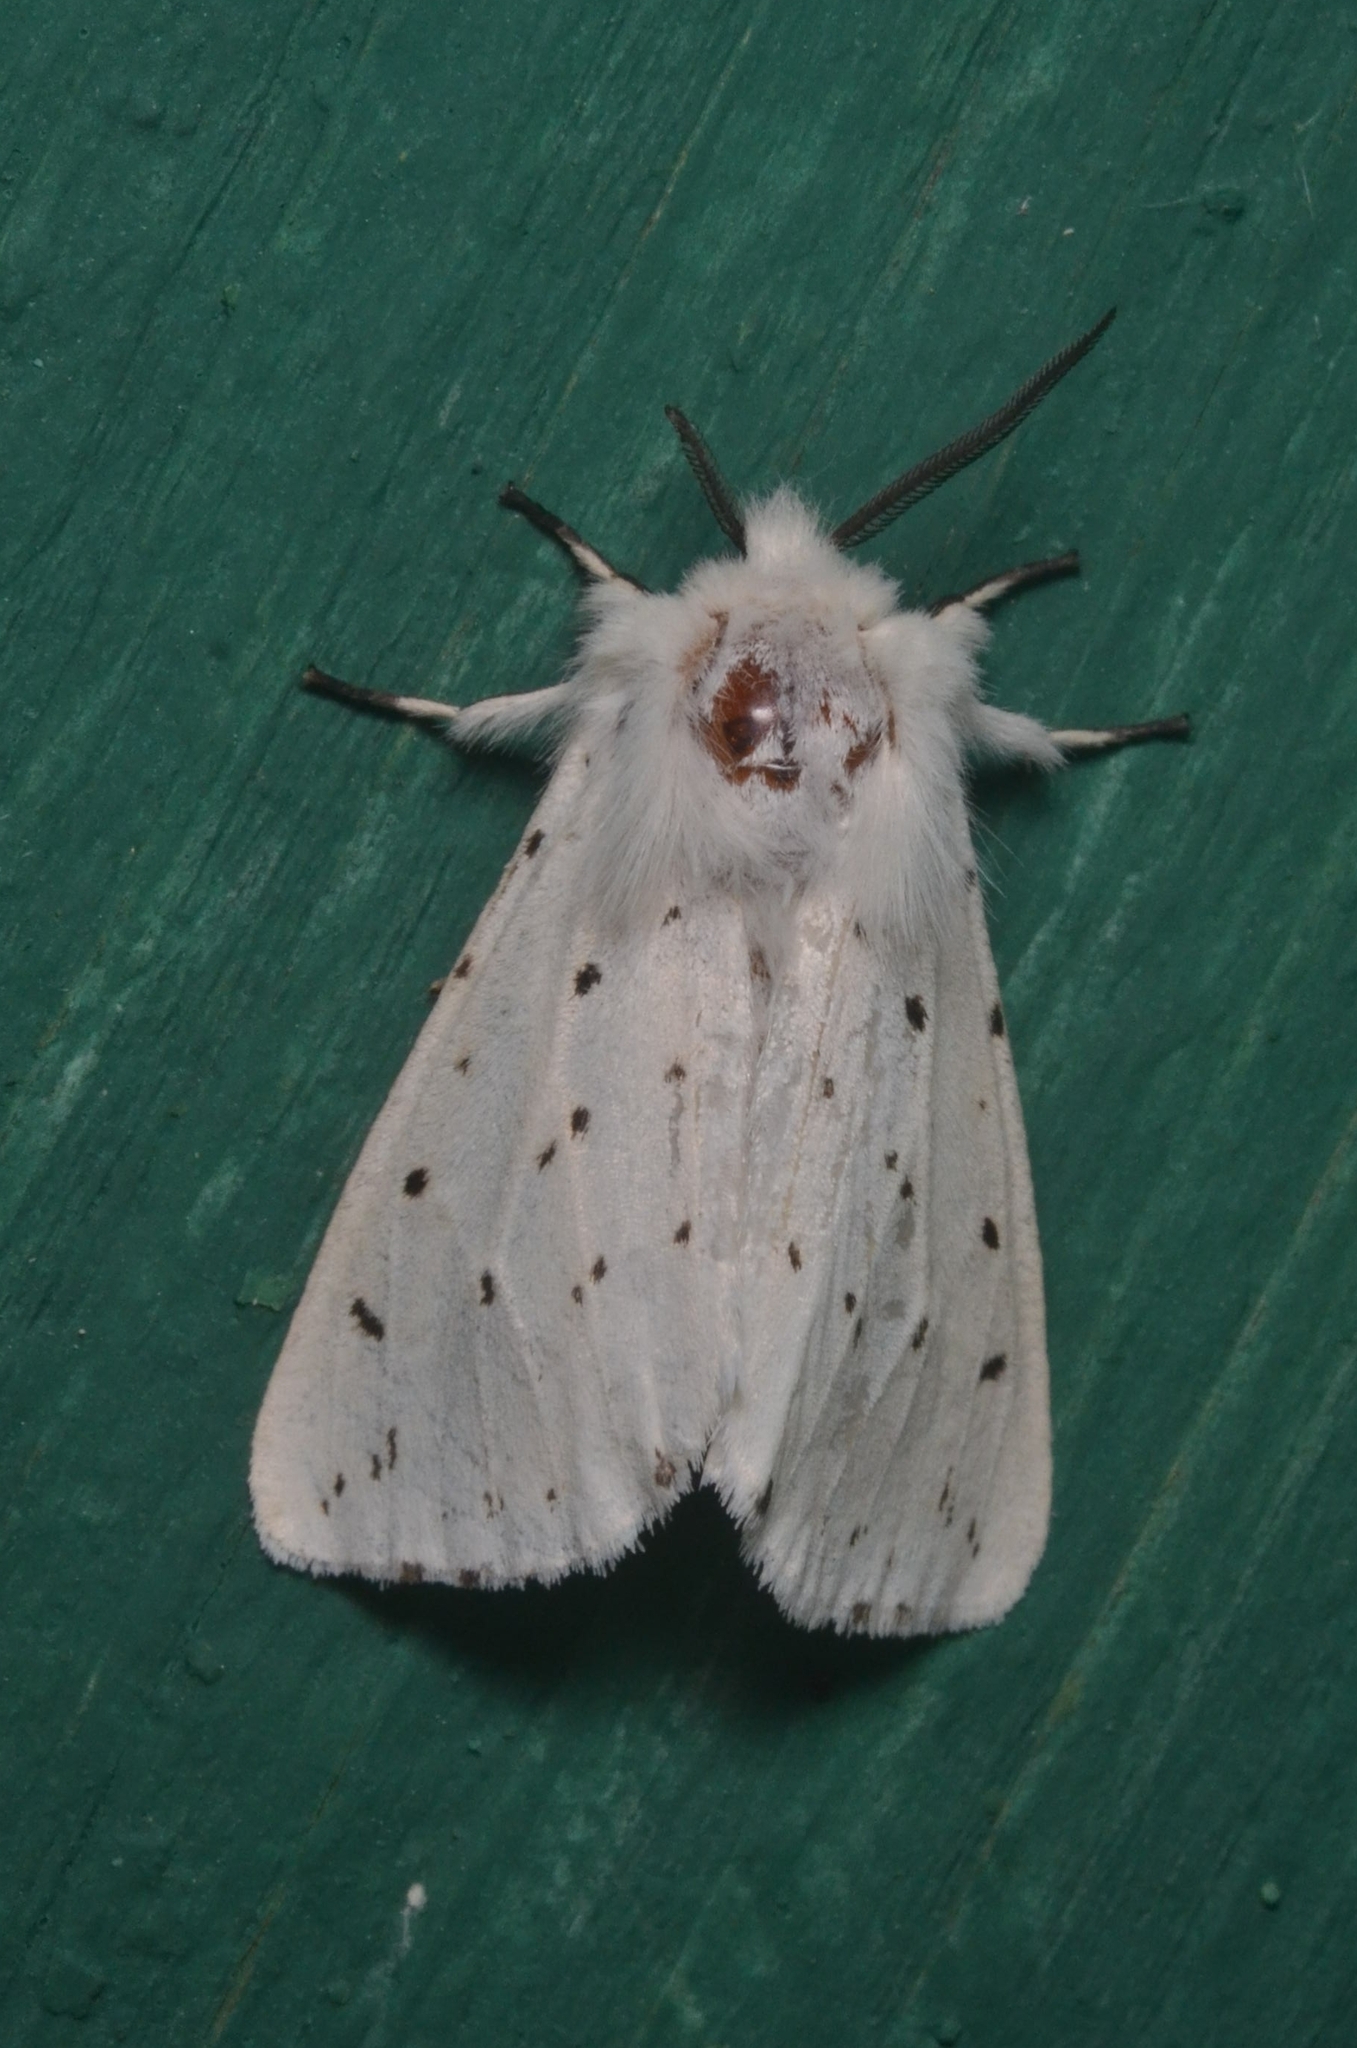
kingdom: Animalia
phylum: Arthropoda
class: Insecta
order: Lepidoptera
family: Erebidae
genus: Spilosoma
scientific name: Spilosoma lubricipeda
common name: White ermine
